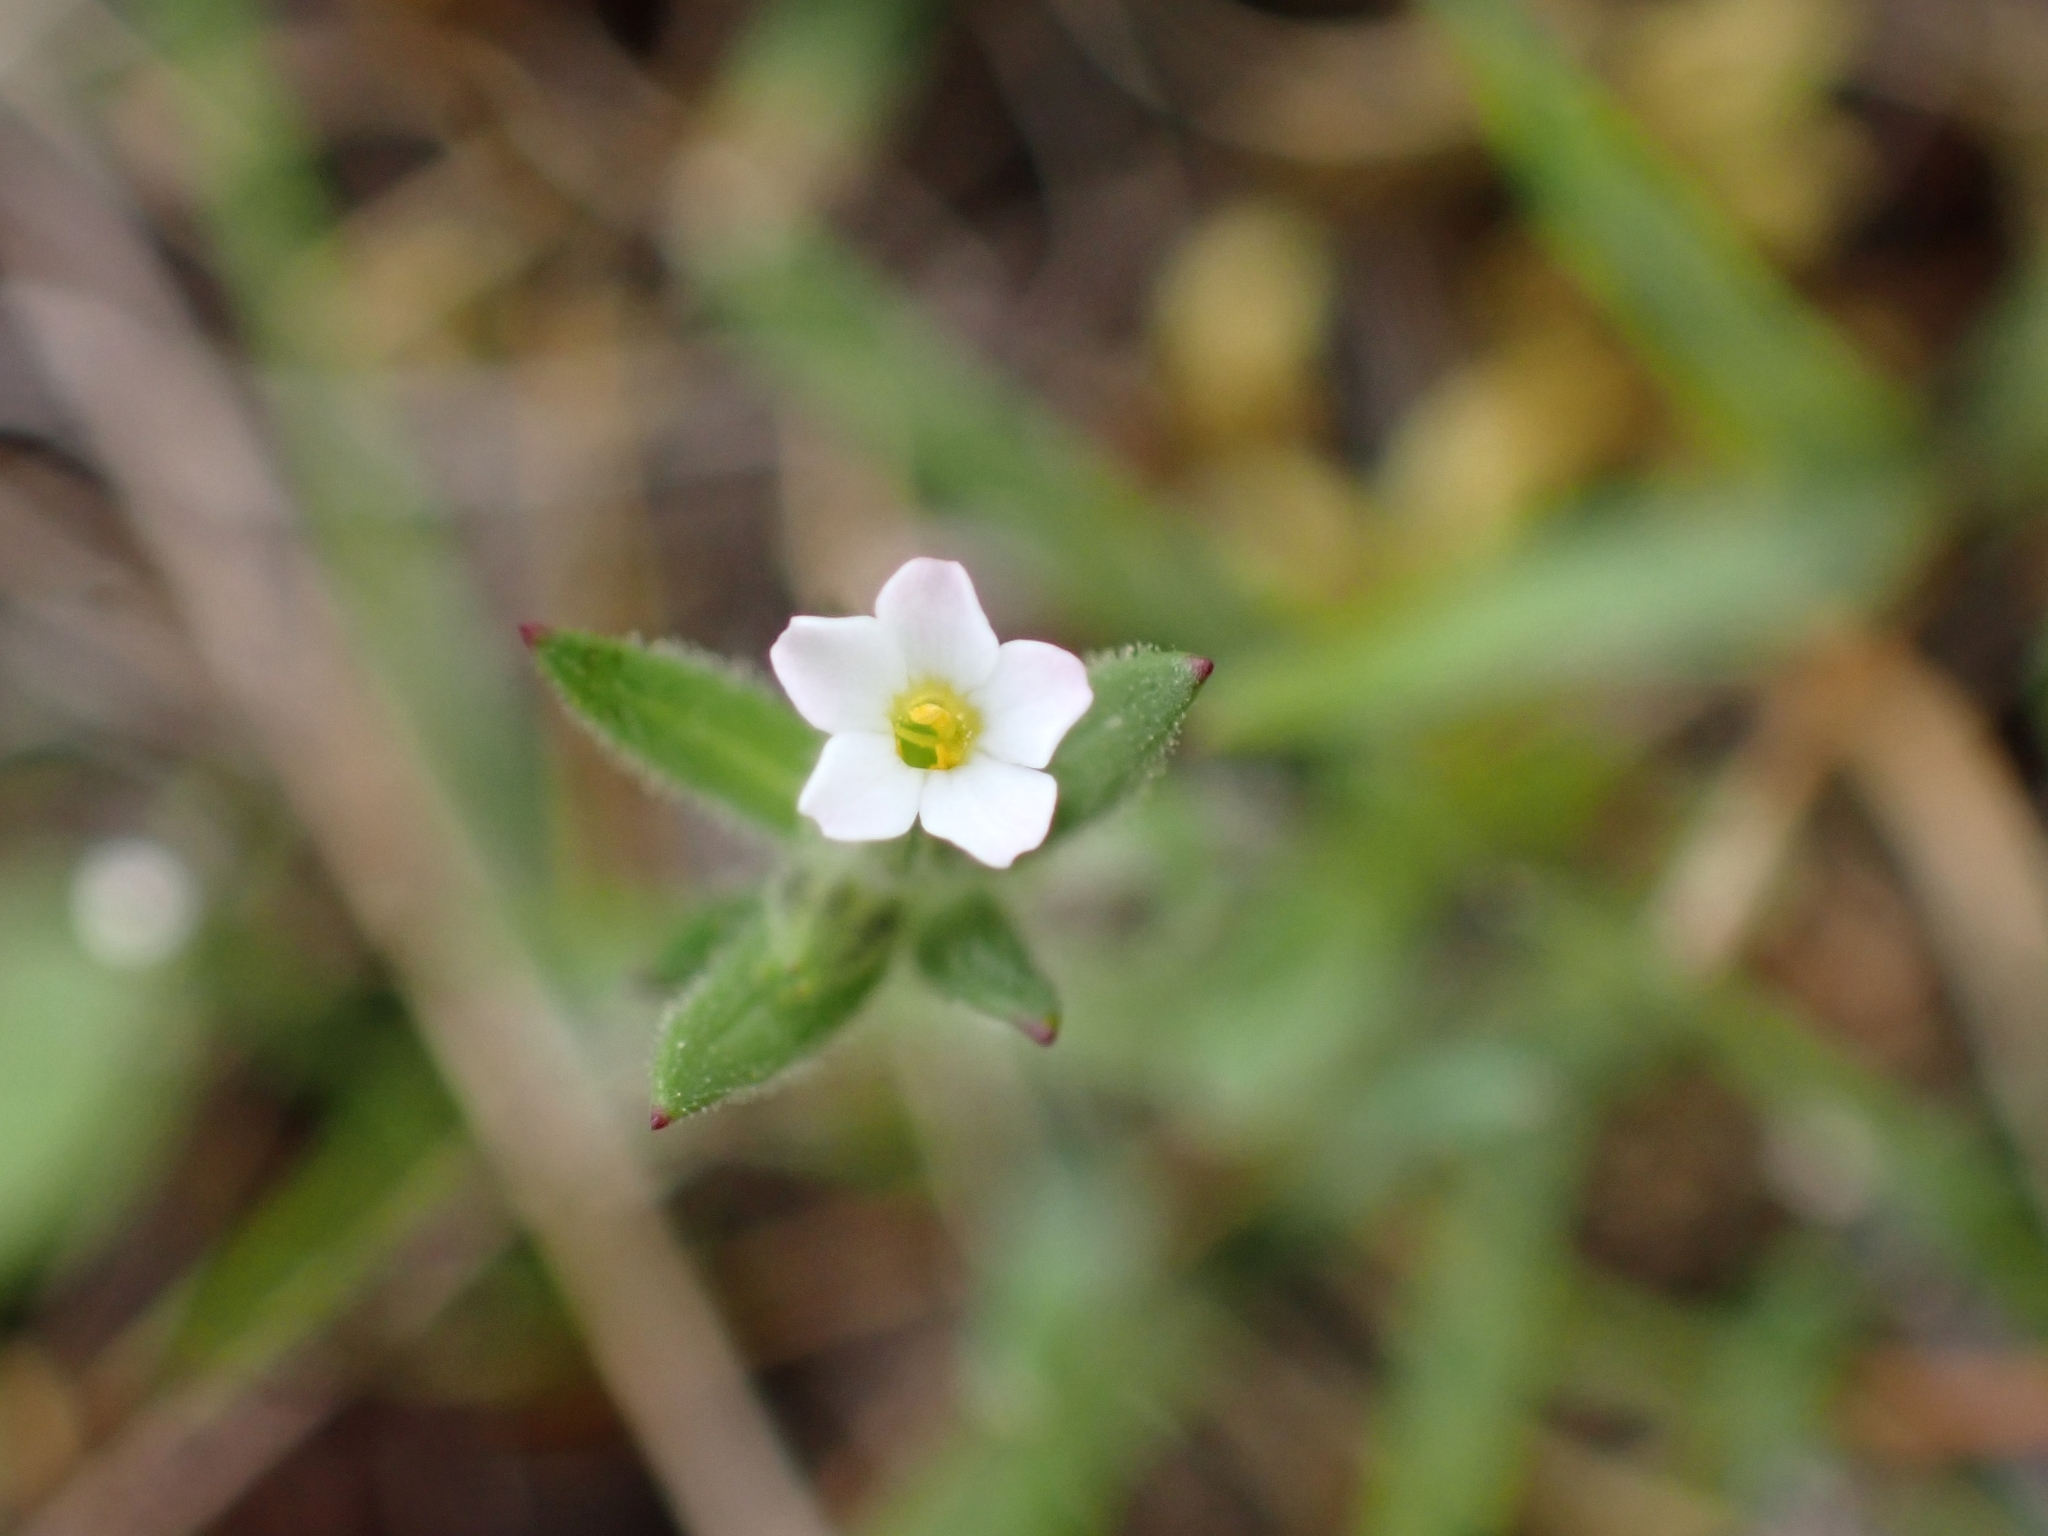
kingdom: Plantae
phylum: Tracheophyta
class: Magnoliopsida
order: Ericales
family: Polemoniaceae
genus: Phlox
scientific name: Phlox gracilis
